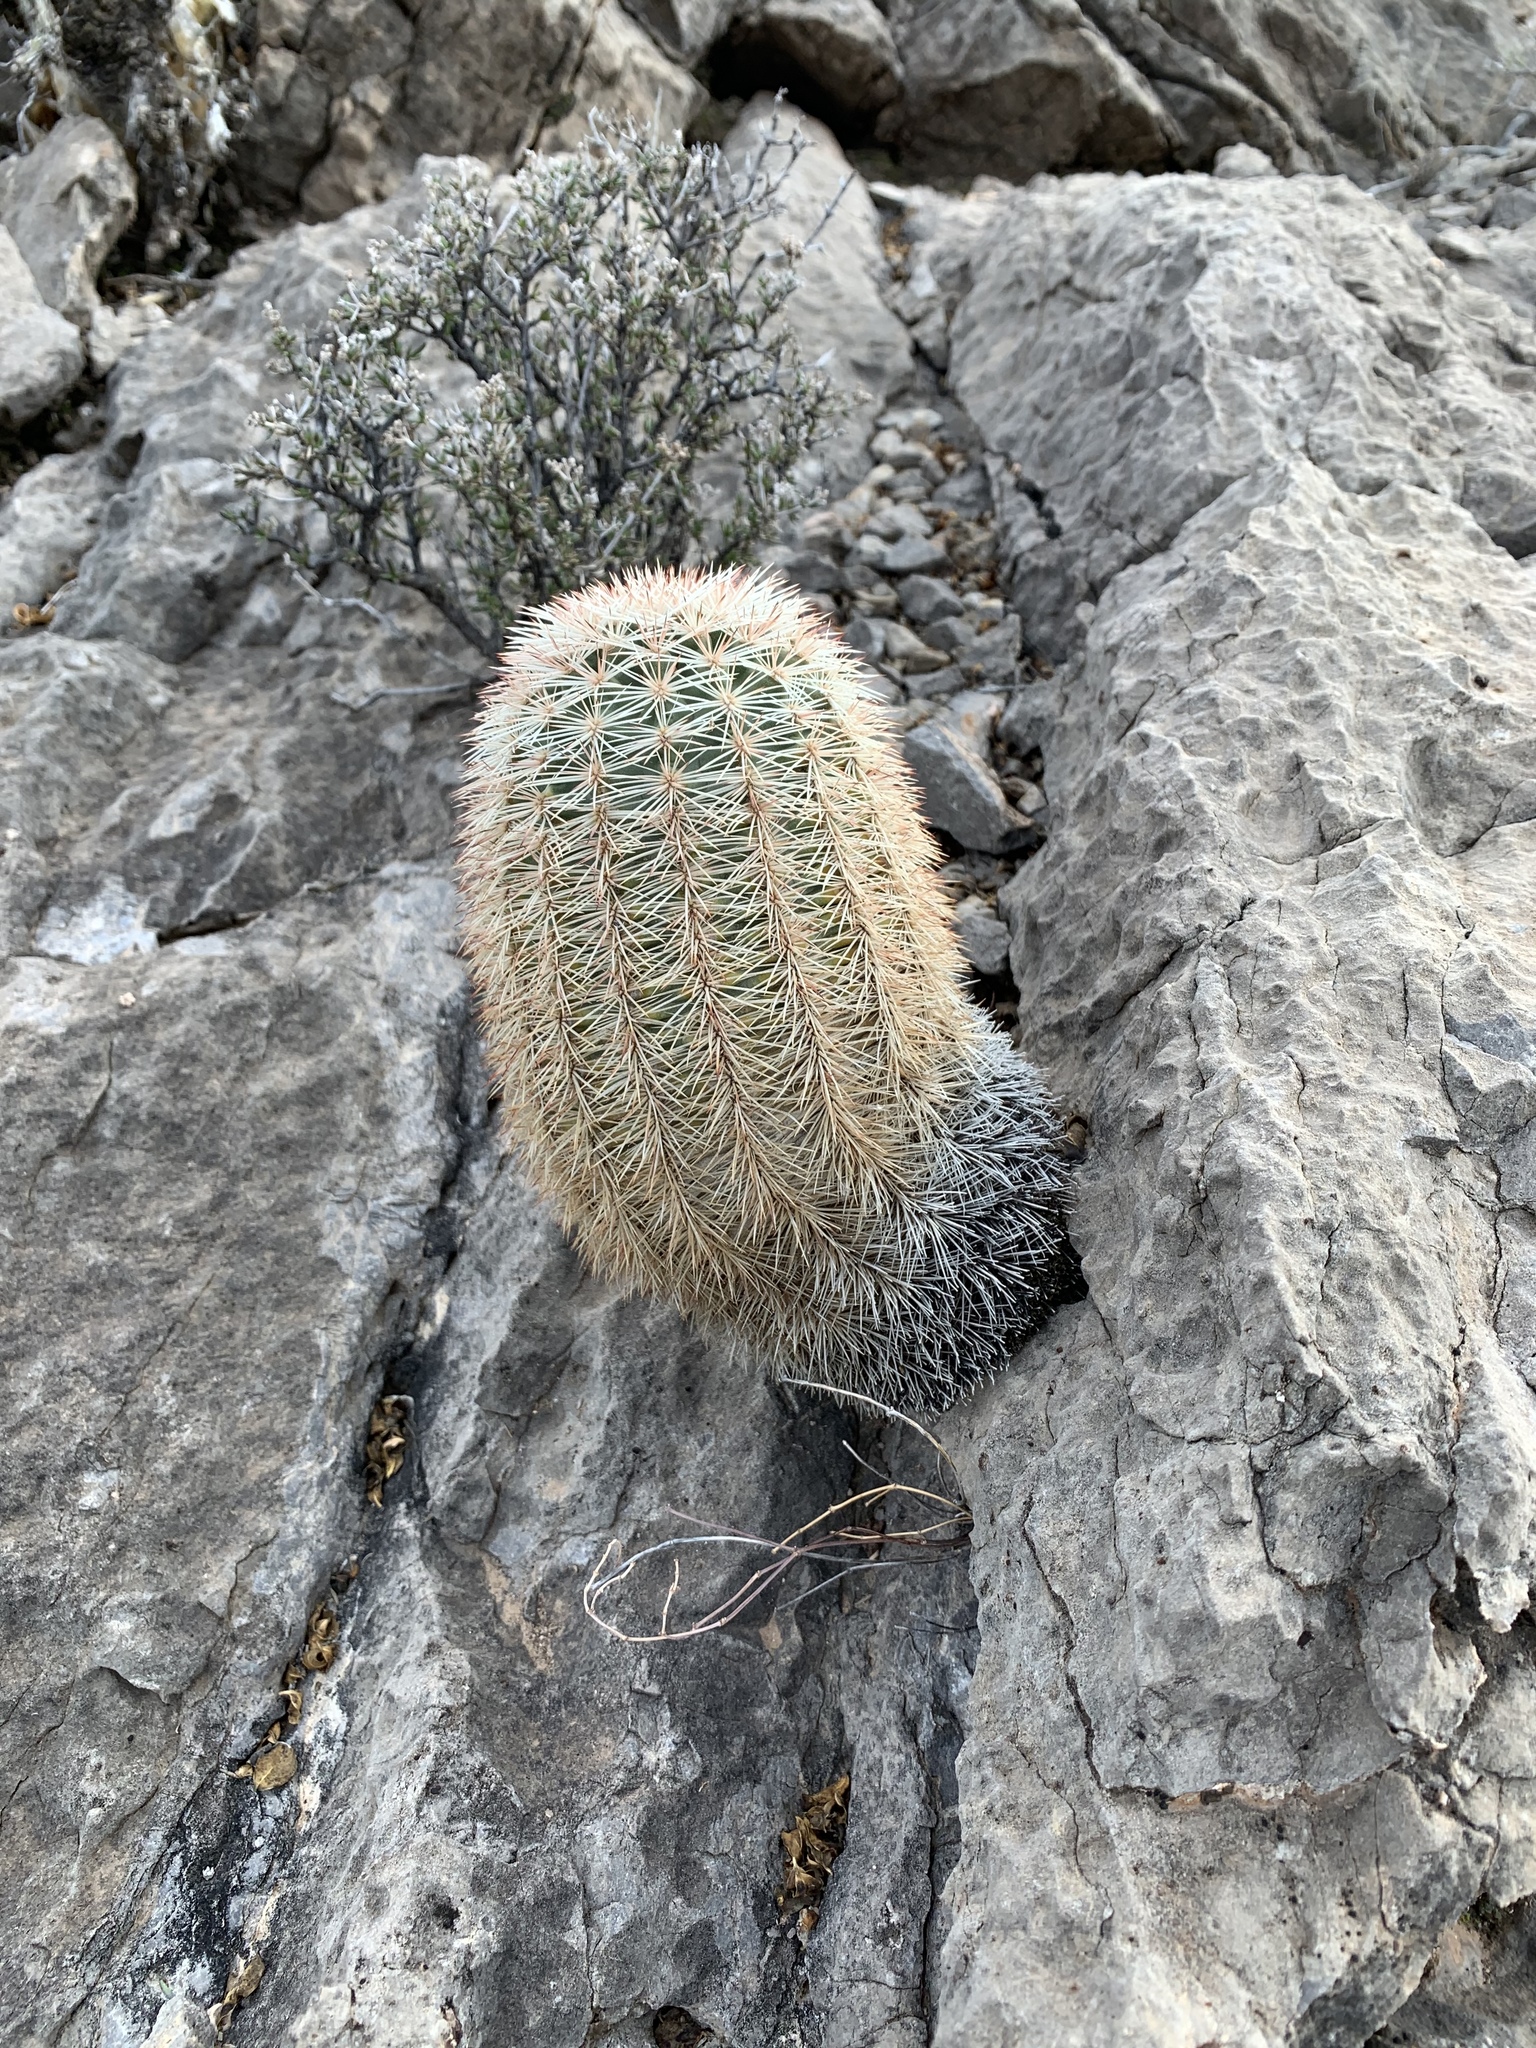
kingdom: Plantae
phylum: Tracheophyta
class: Magnoliopsida
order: Caryophyllales
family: Cactaceae
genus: Echinocereus
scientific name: Echinocereus dasyacanthus
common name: Spiny hedgehog cactus
